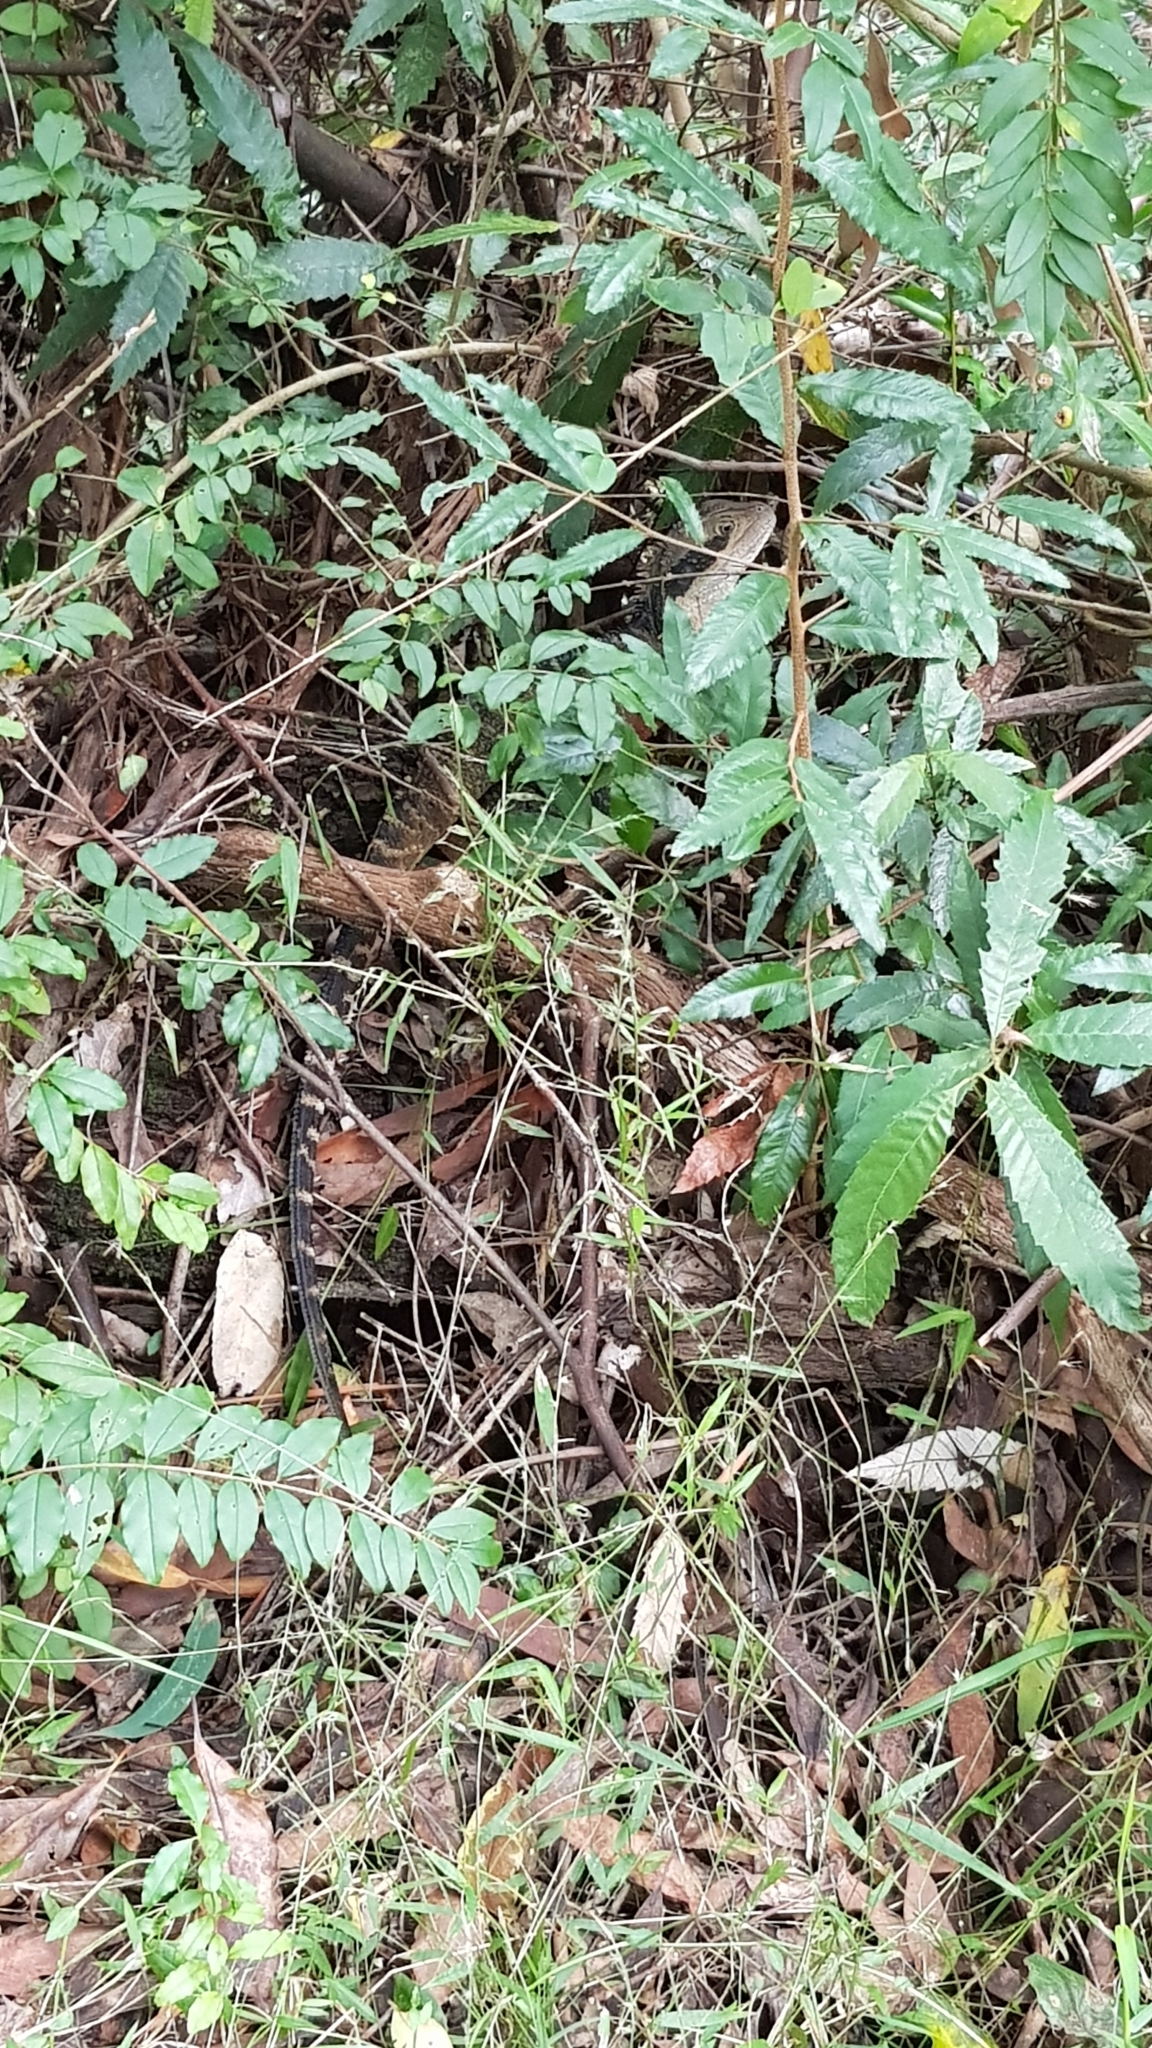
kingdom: Animalia
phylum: Chordata
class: Squamata
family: Agamidae
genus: Intellagama
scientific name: Intellagama lesueurii
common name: Eastern water dragon
